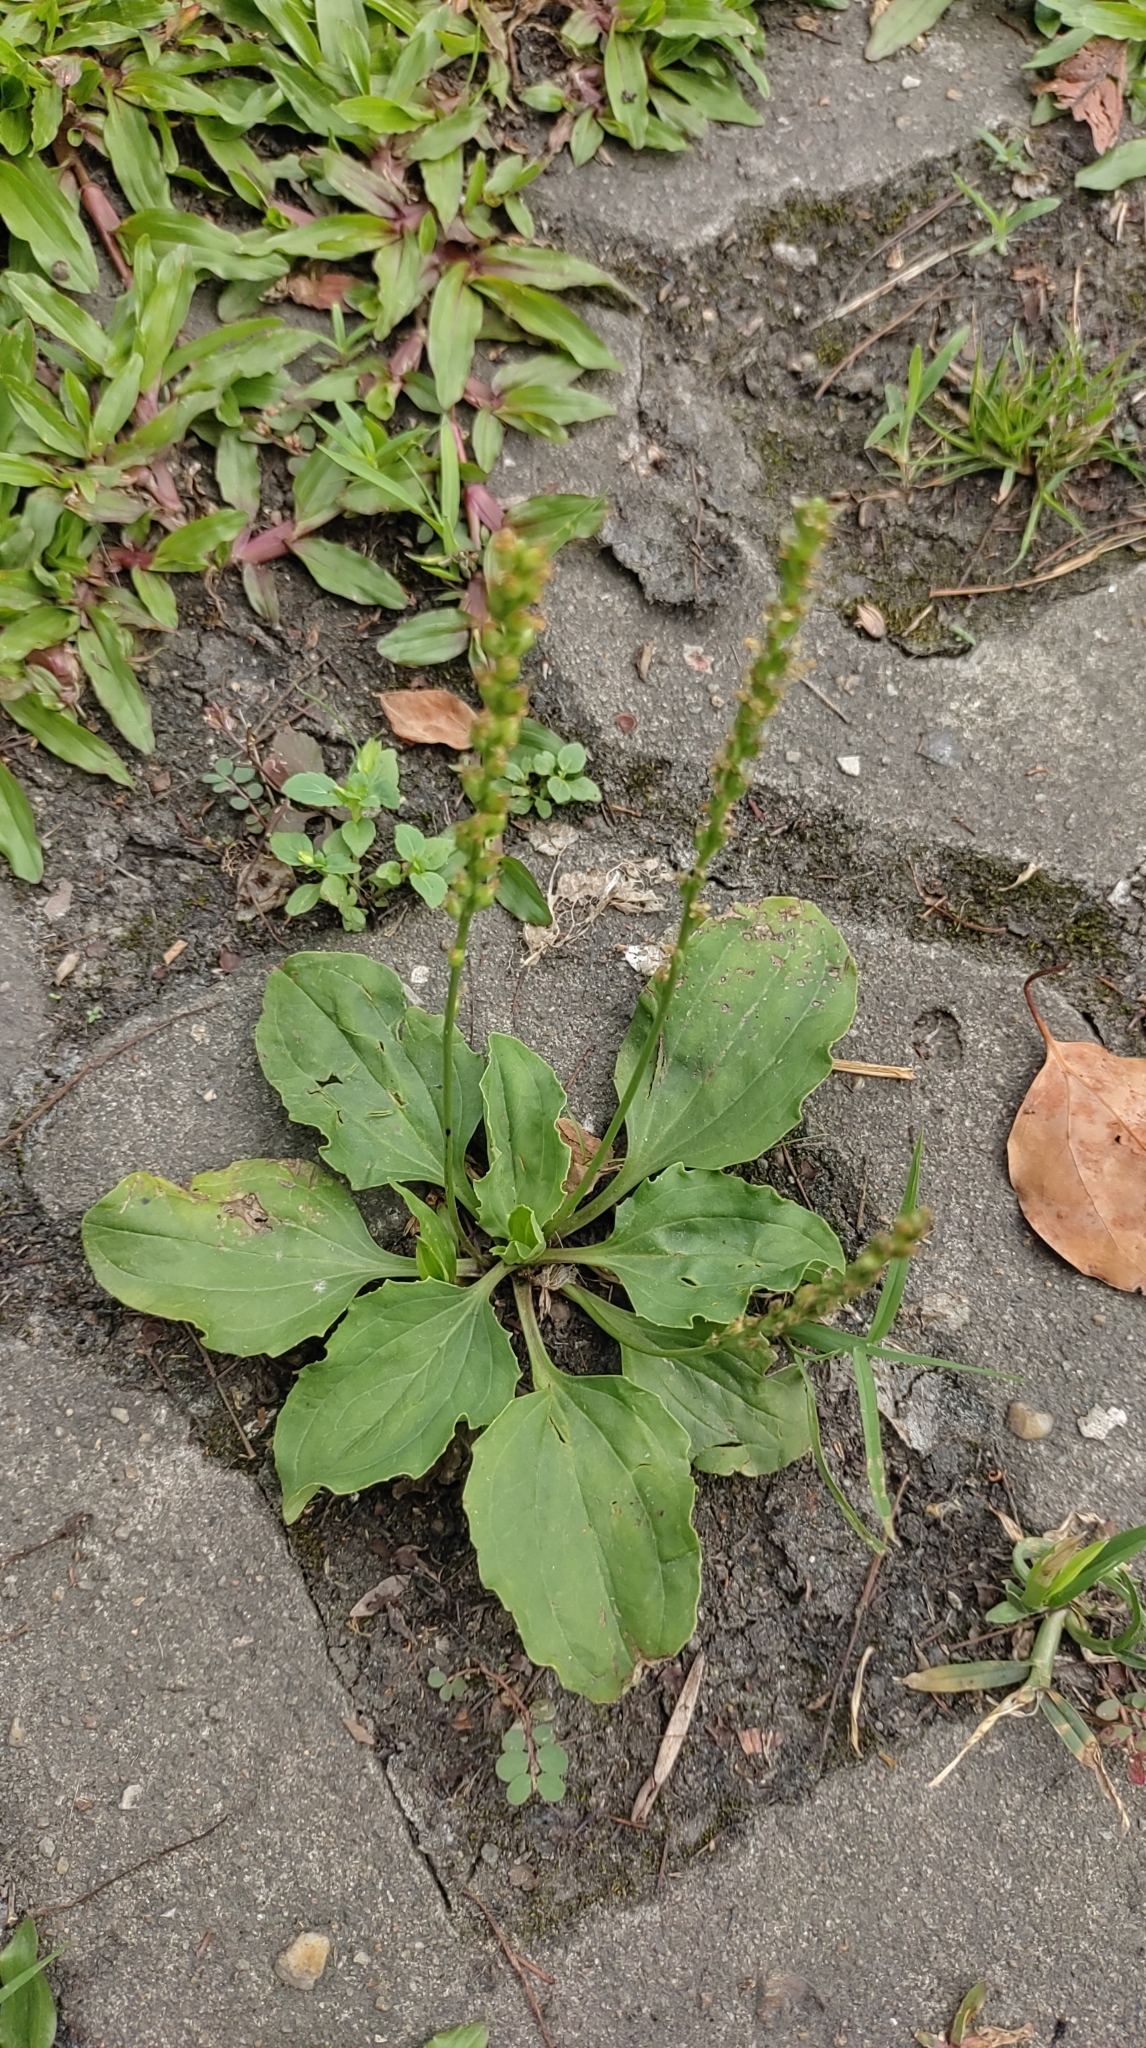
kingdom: Plantae
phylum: Tracheophyta
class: Magnoliopsida
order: Lamiales
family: Plantaginaceae
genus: Plantago
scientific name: Plantago asiatica
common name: Psyllium
